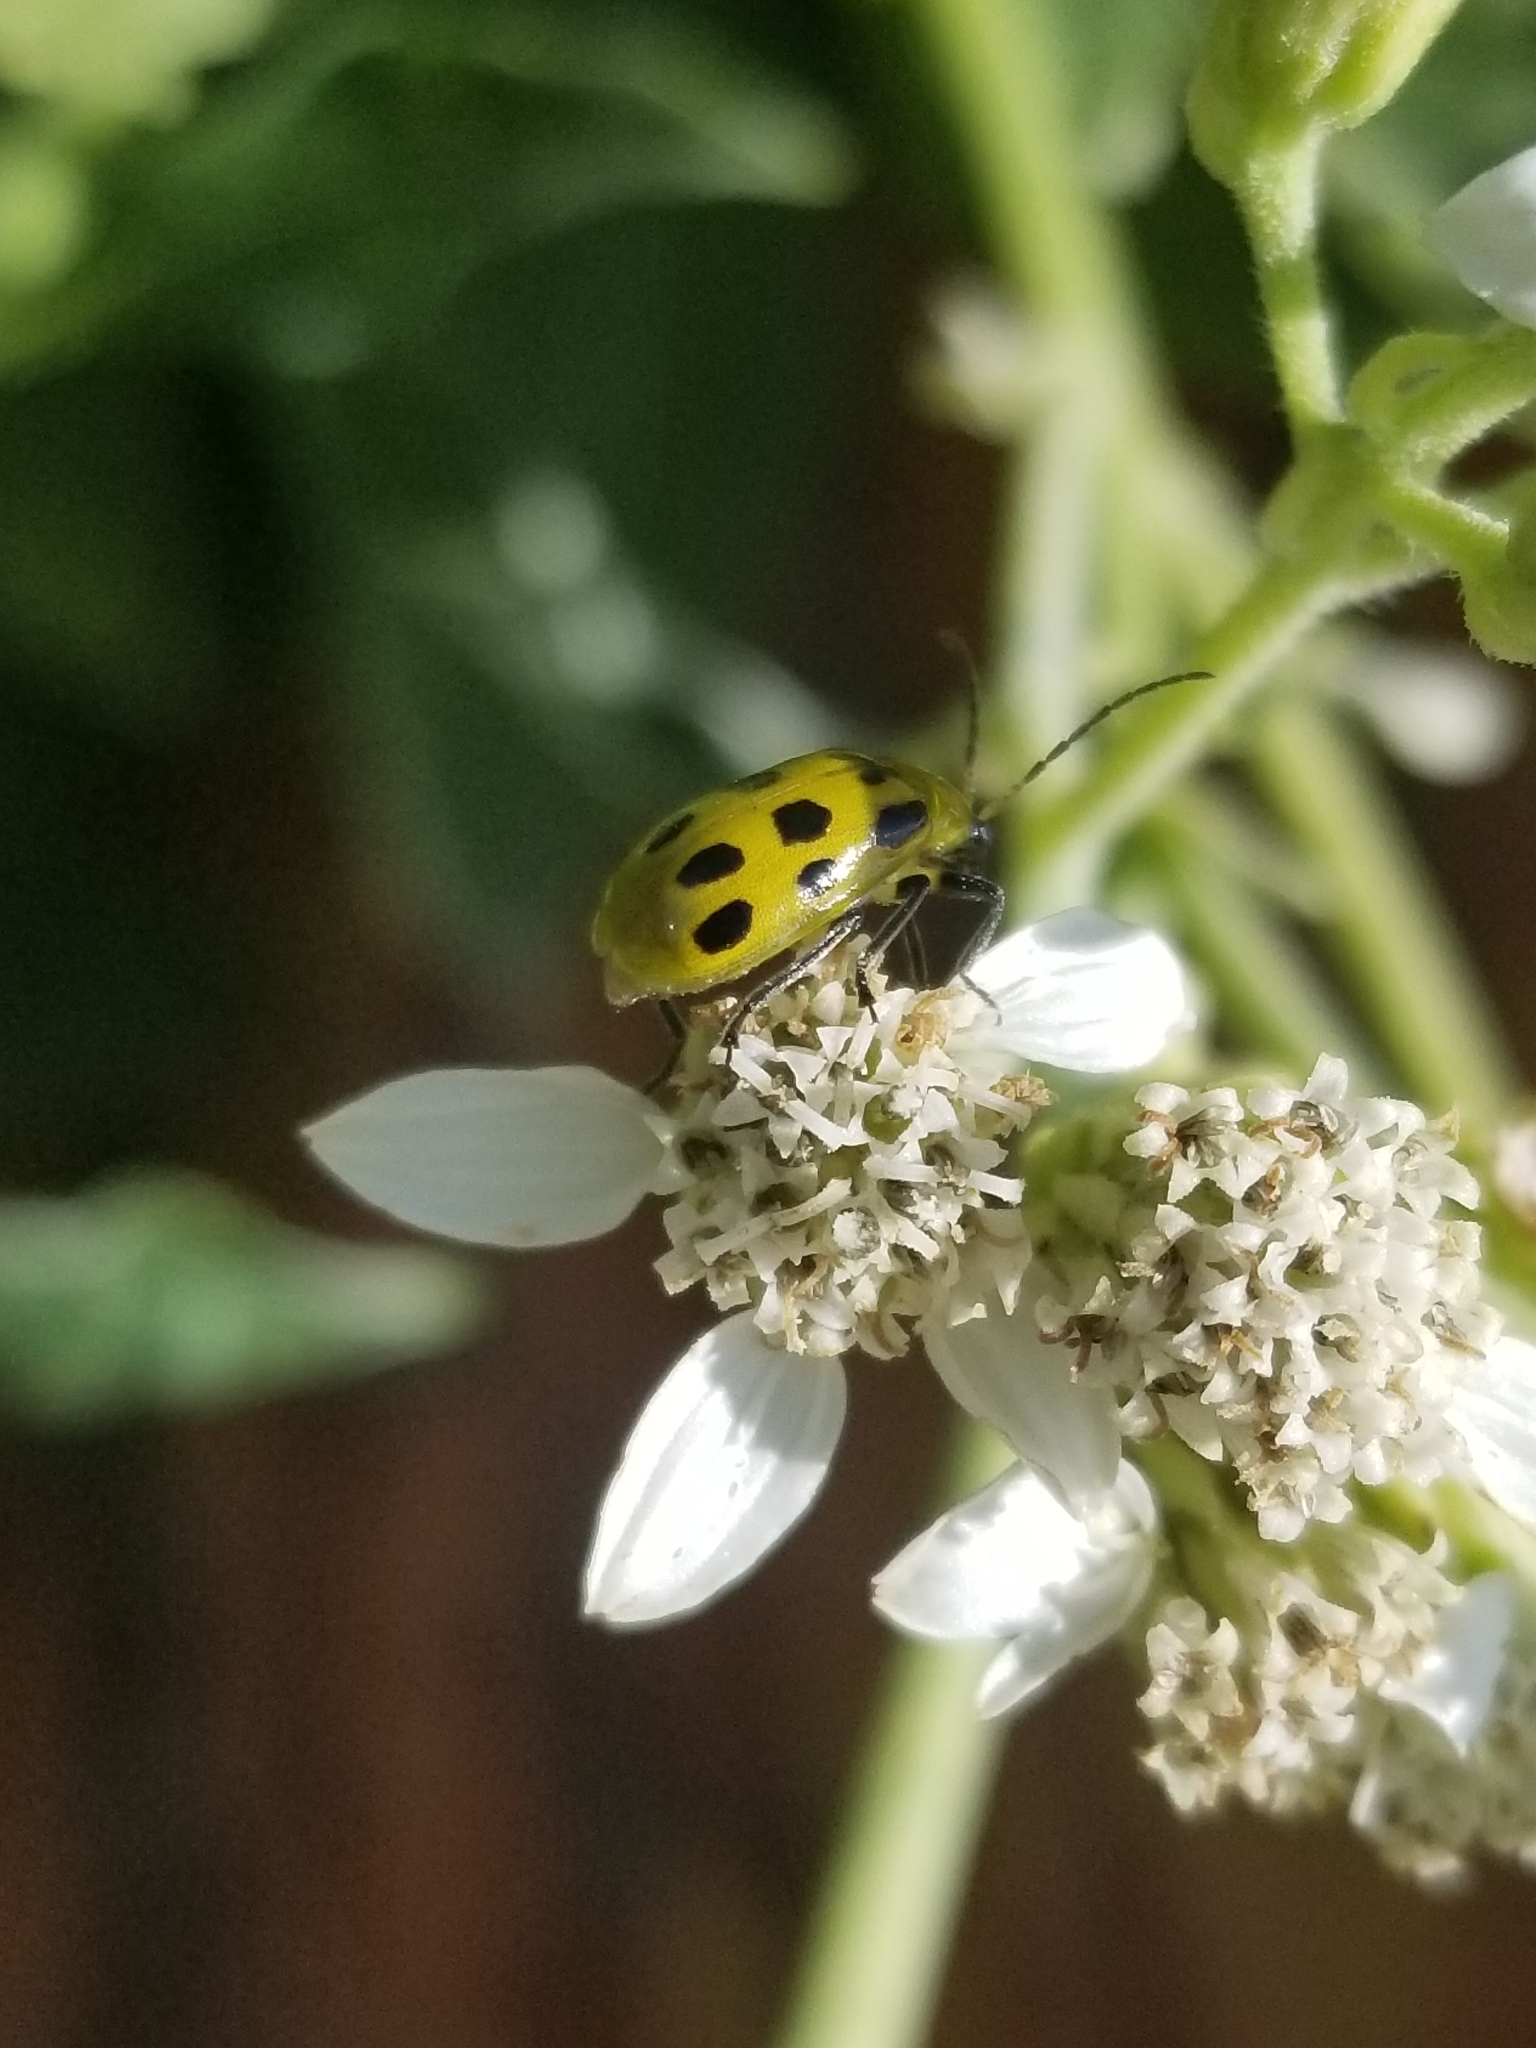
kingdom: Animalia
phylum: Arthropoda
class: Insecta
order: Coleoptera
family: Chrysomelidae
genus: Diabrotica
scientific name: Diabrotica undecimpunctata
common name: Spotted cucumber beetle
